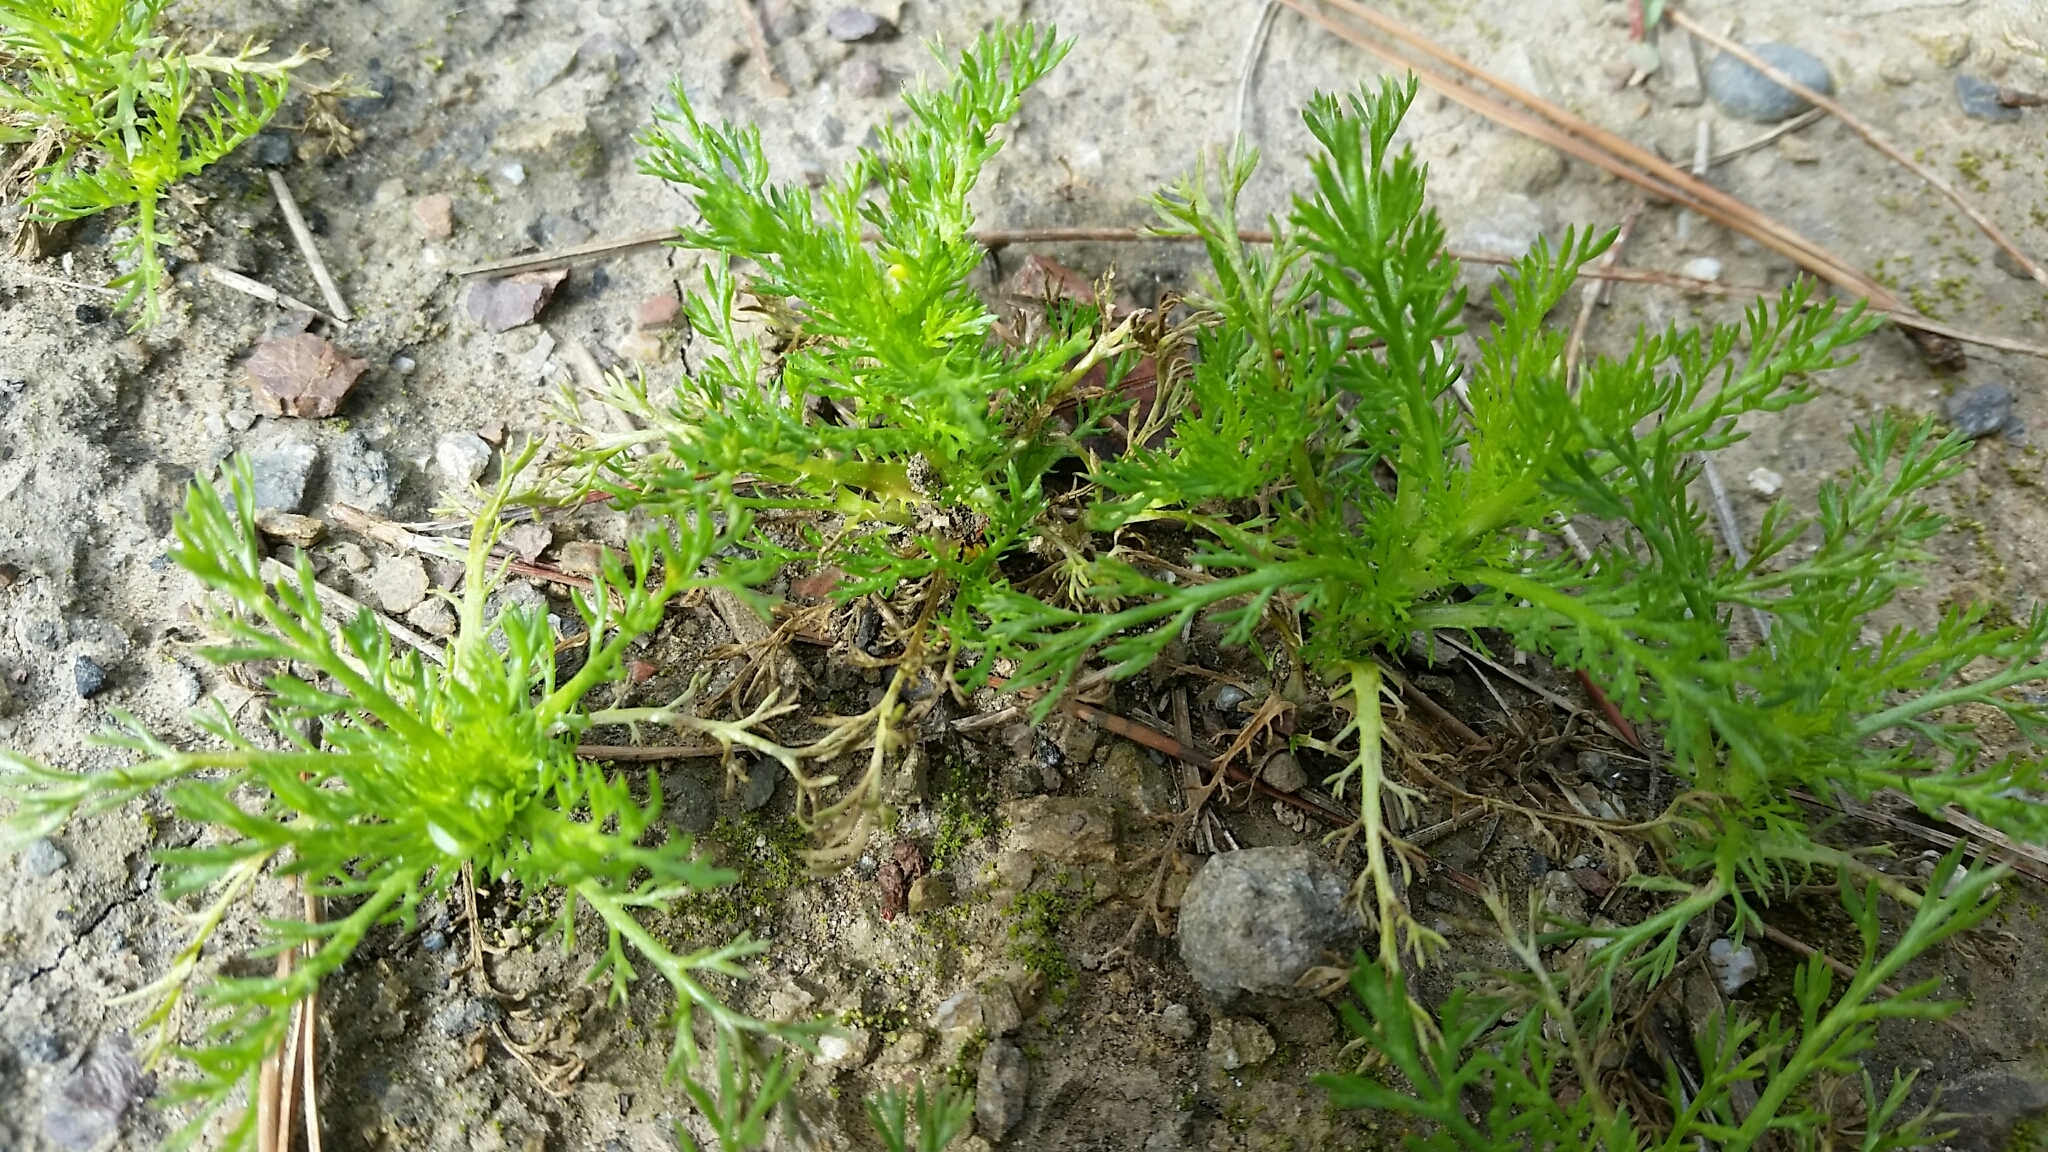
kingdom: Plantae
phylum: Tracheophyta
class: Magnoliopsida
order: Asterales
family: Asteraceae
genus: Matricaria
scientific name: Matricaria discoidea
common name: Disc mayweed
